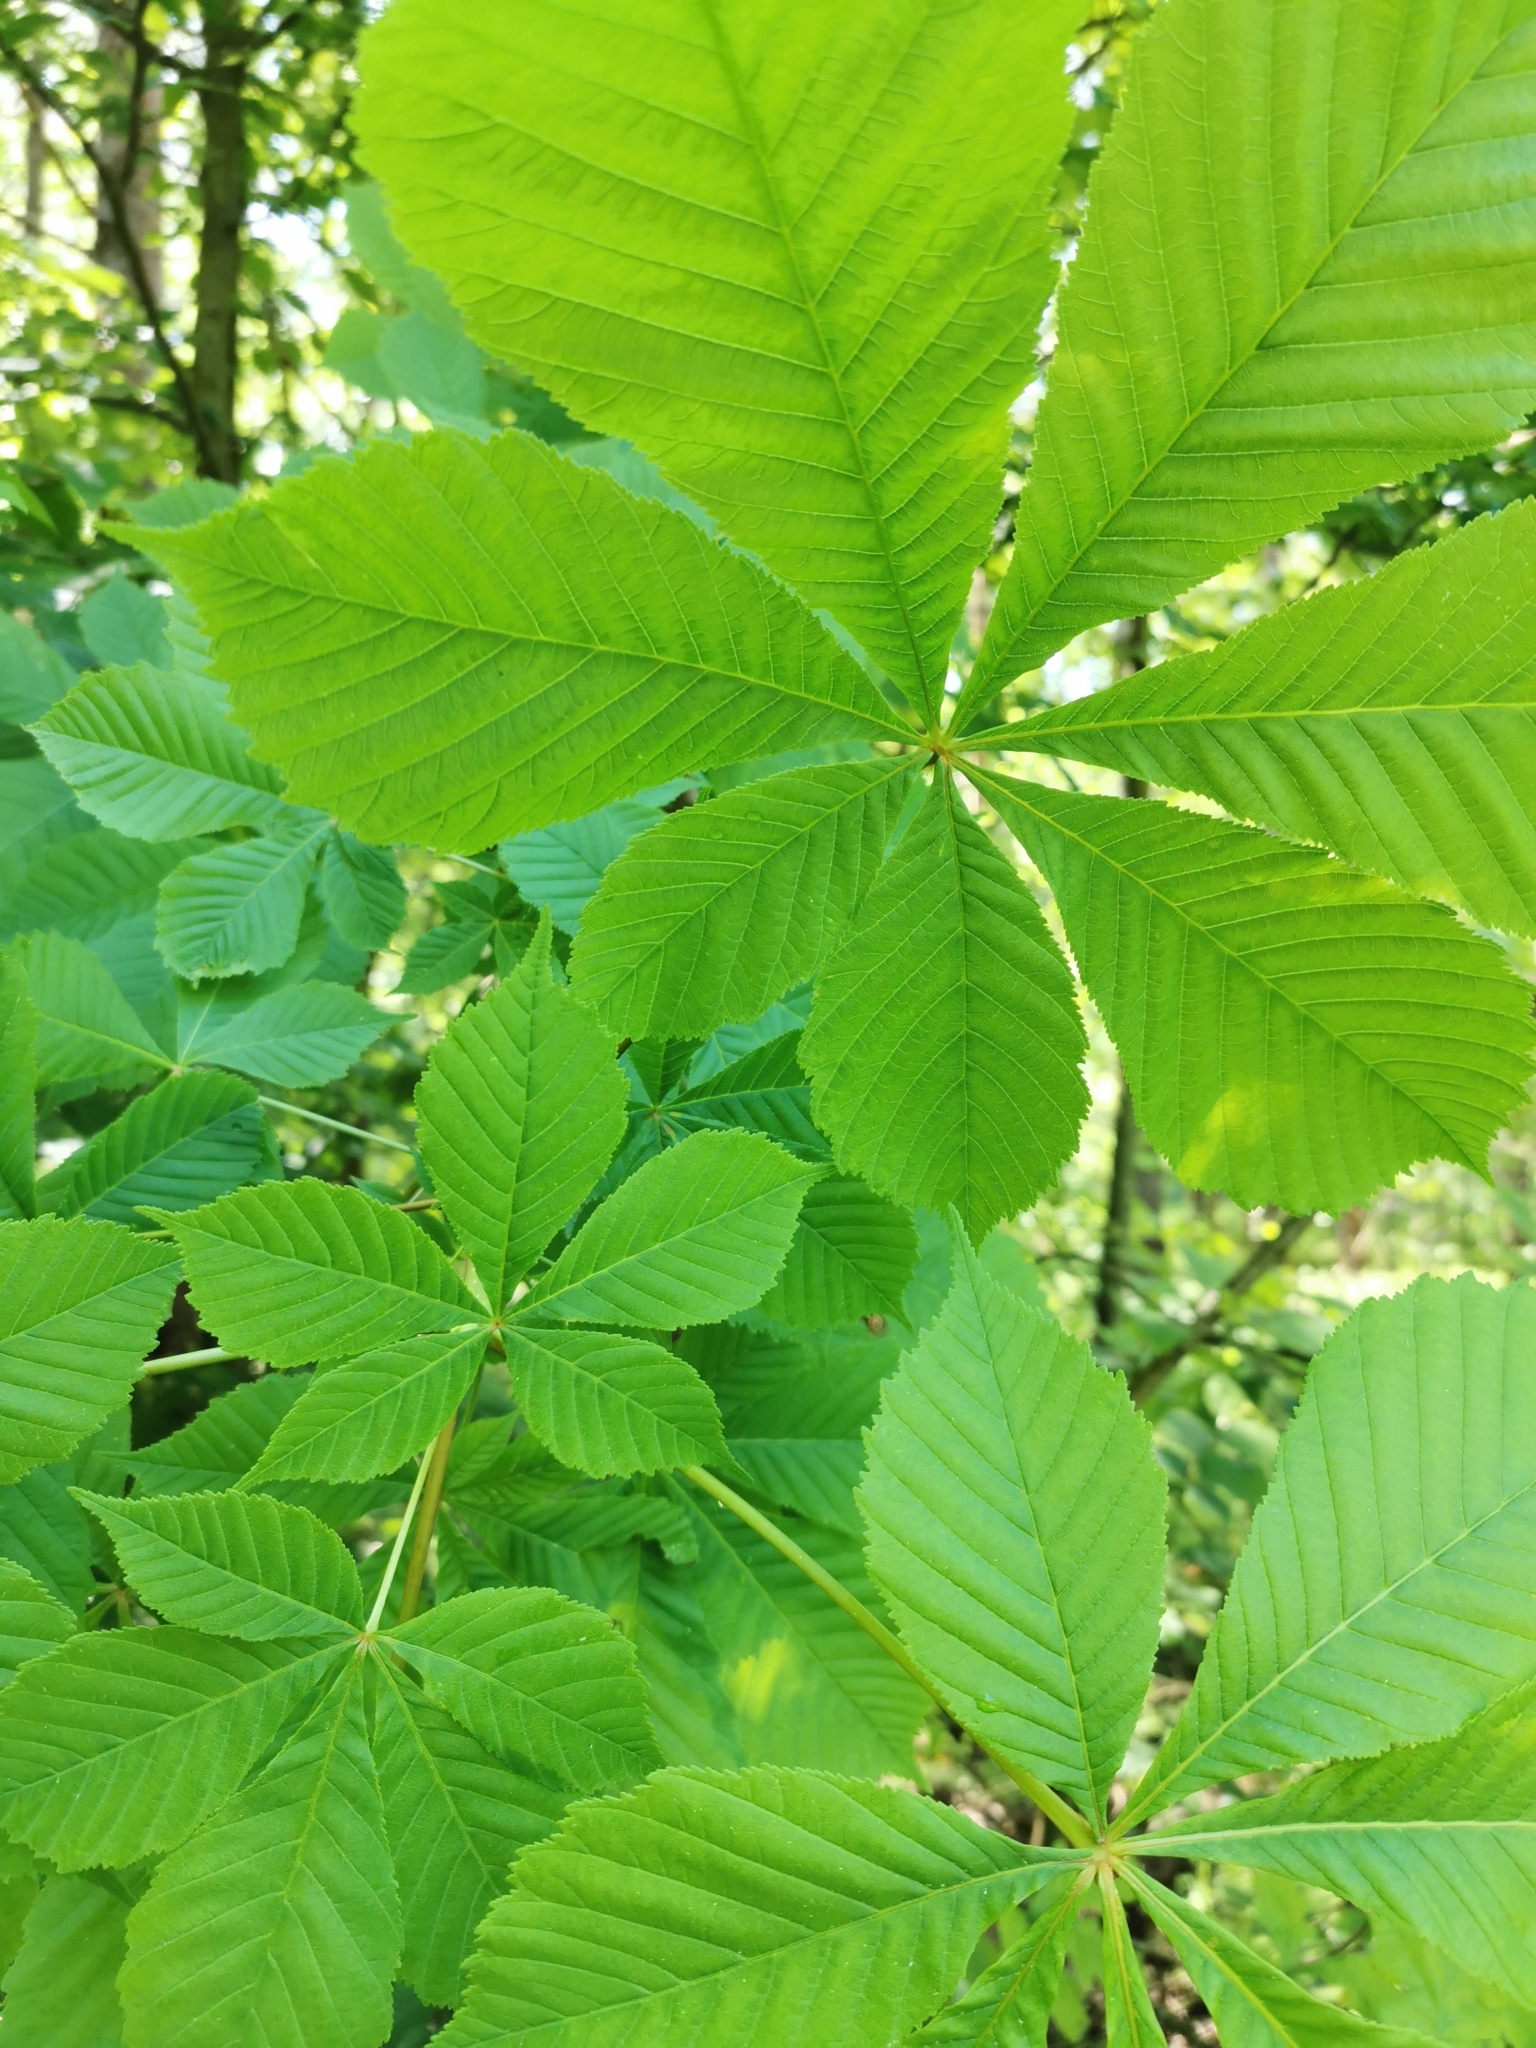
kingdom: Plantae
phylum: Tracheophyta
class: Magnoliopsida
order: Sapindales
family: Sapindaceae
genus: Aesculus
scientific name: Aesculus hippocastanum
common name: Horse-chestnut
